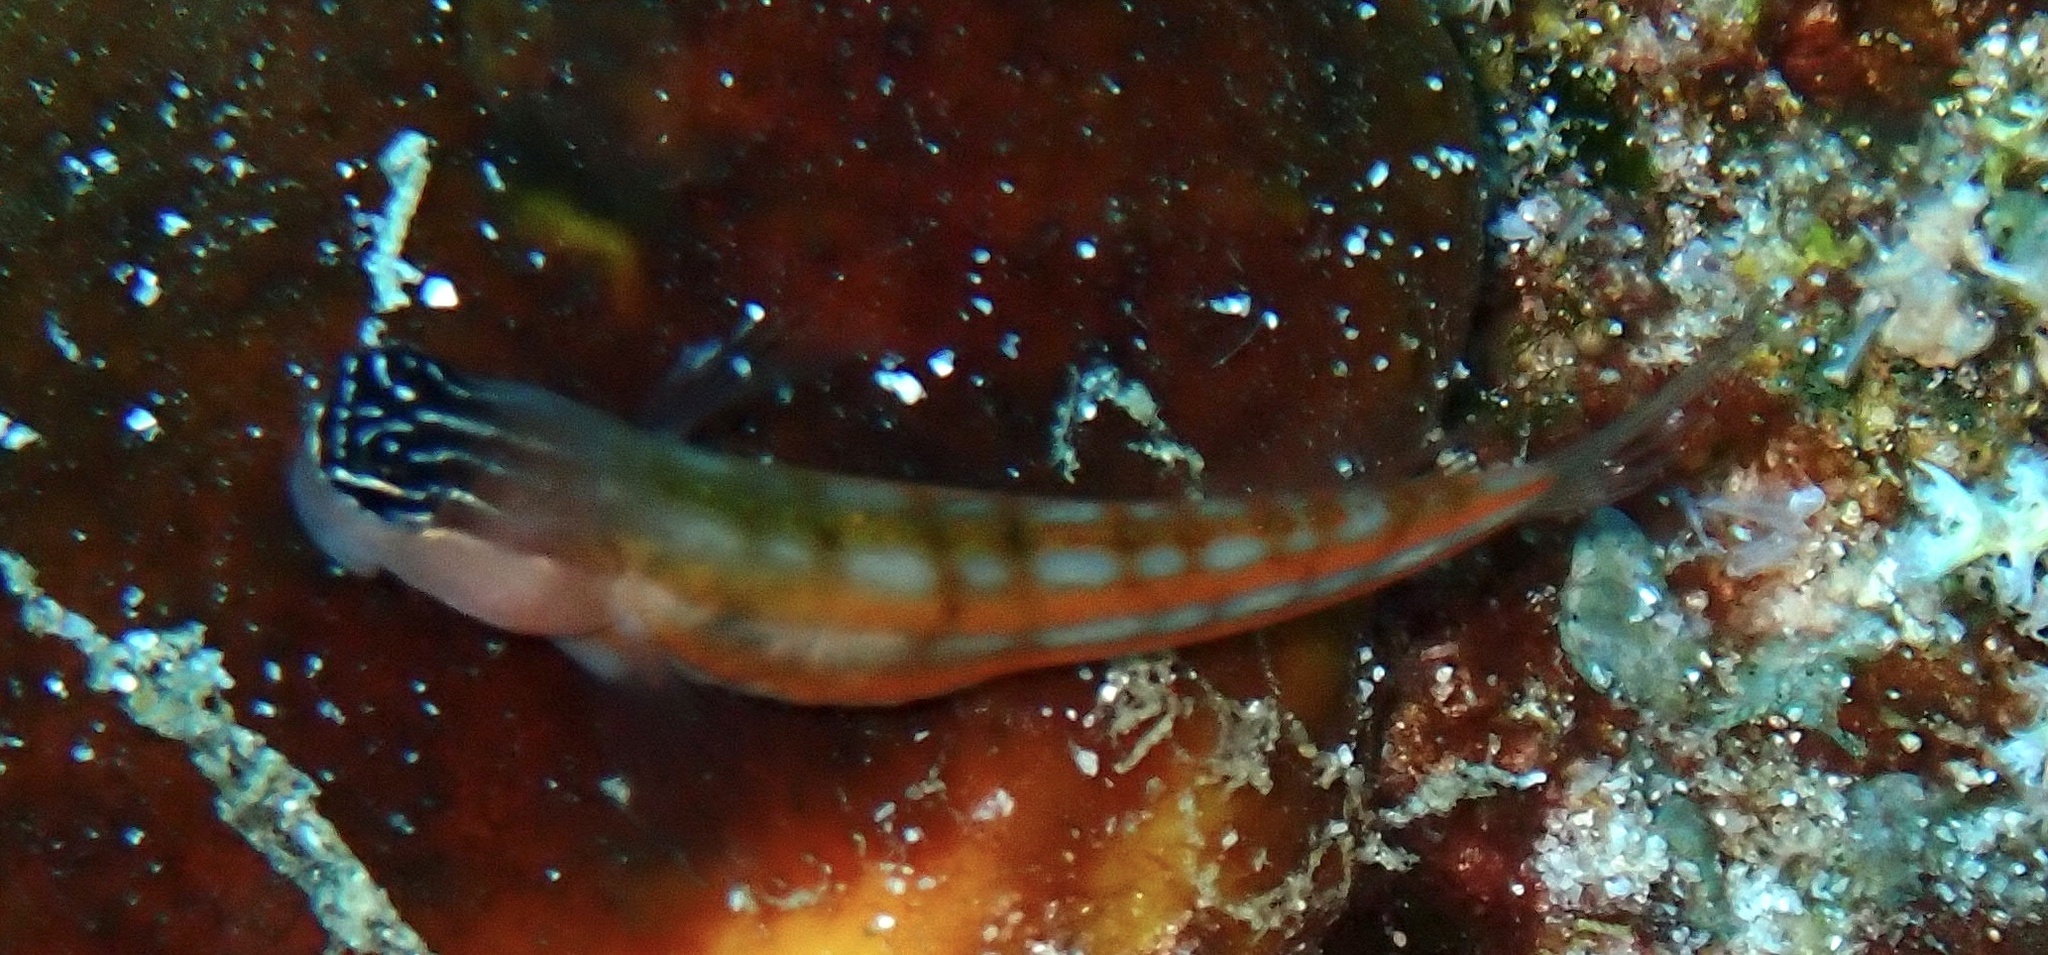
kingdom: Animalia
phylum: Chordata
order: Perciformes
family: Blenniidae
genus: Ecsenius
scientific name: Ecsenius bathi
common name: Bath's comb-tooth
